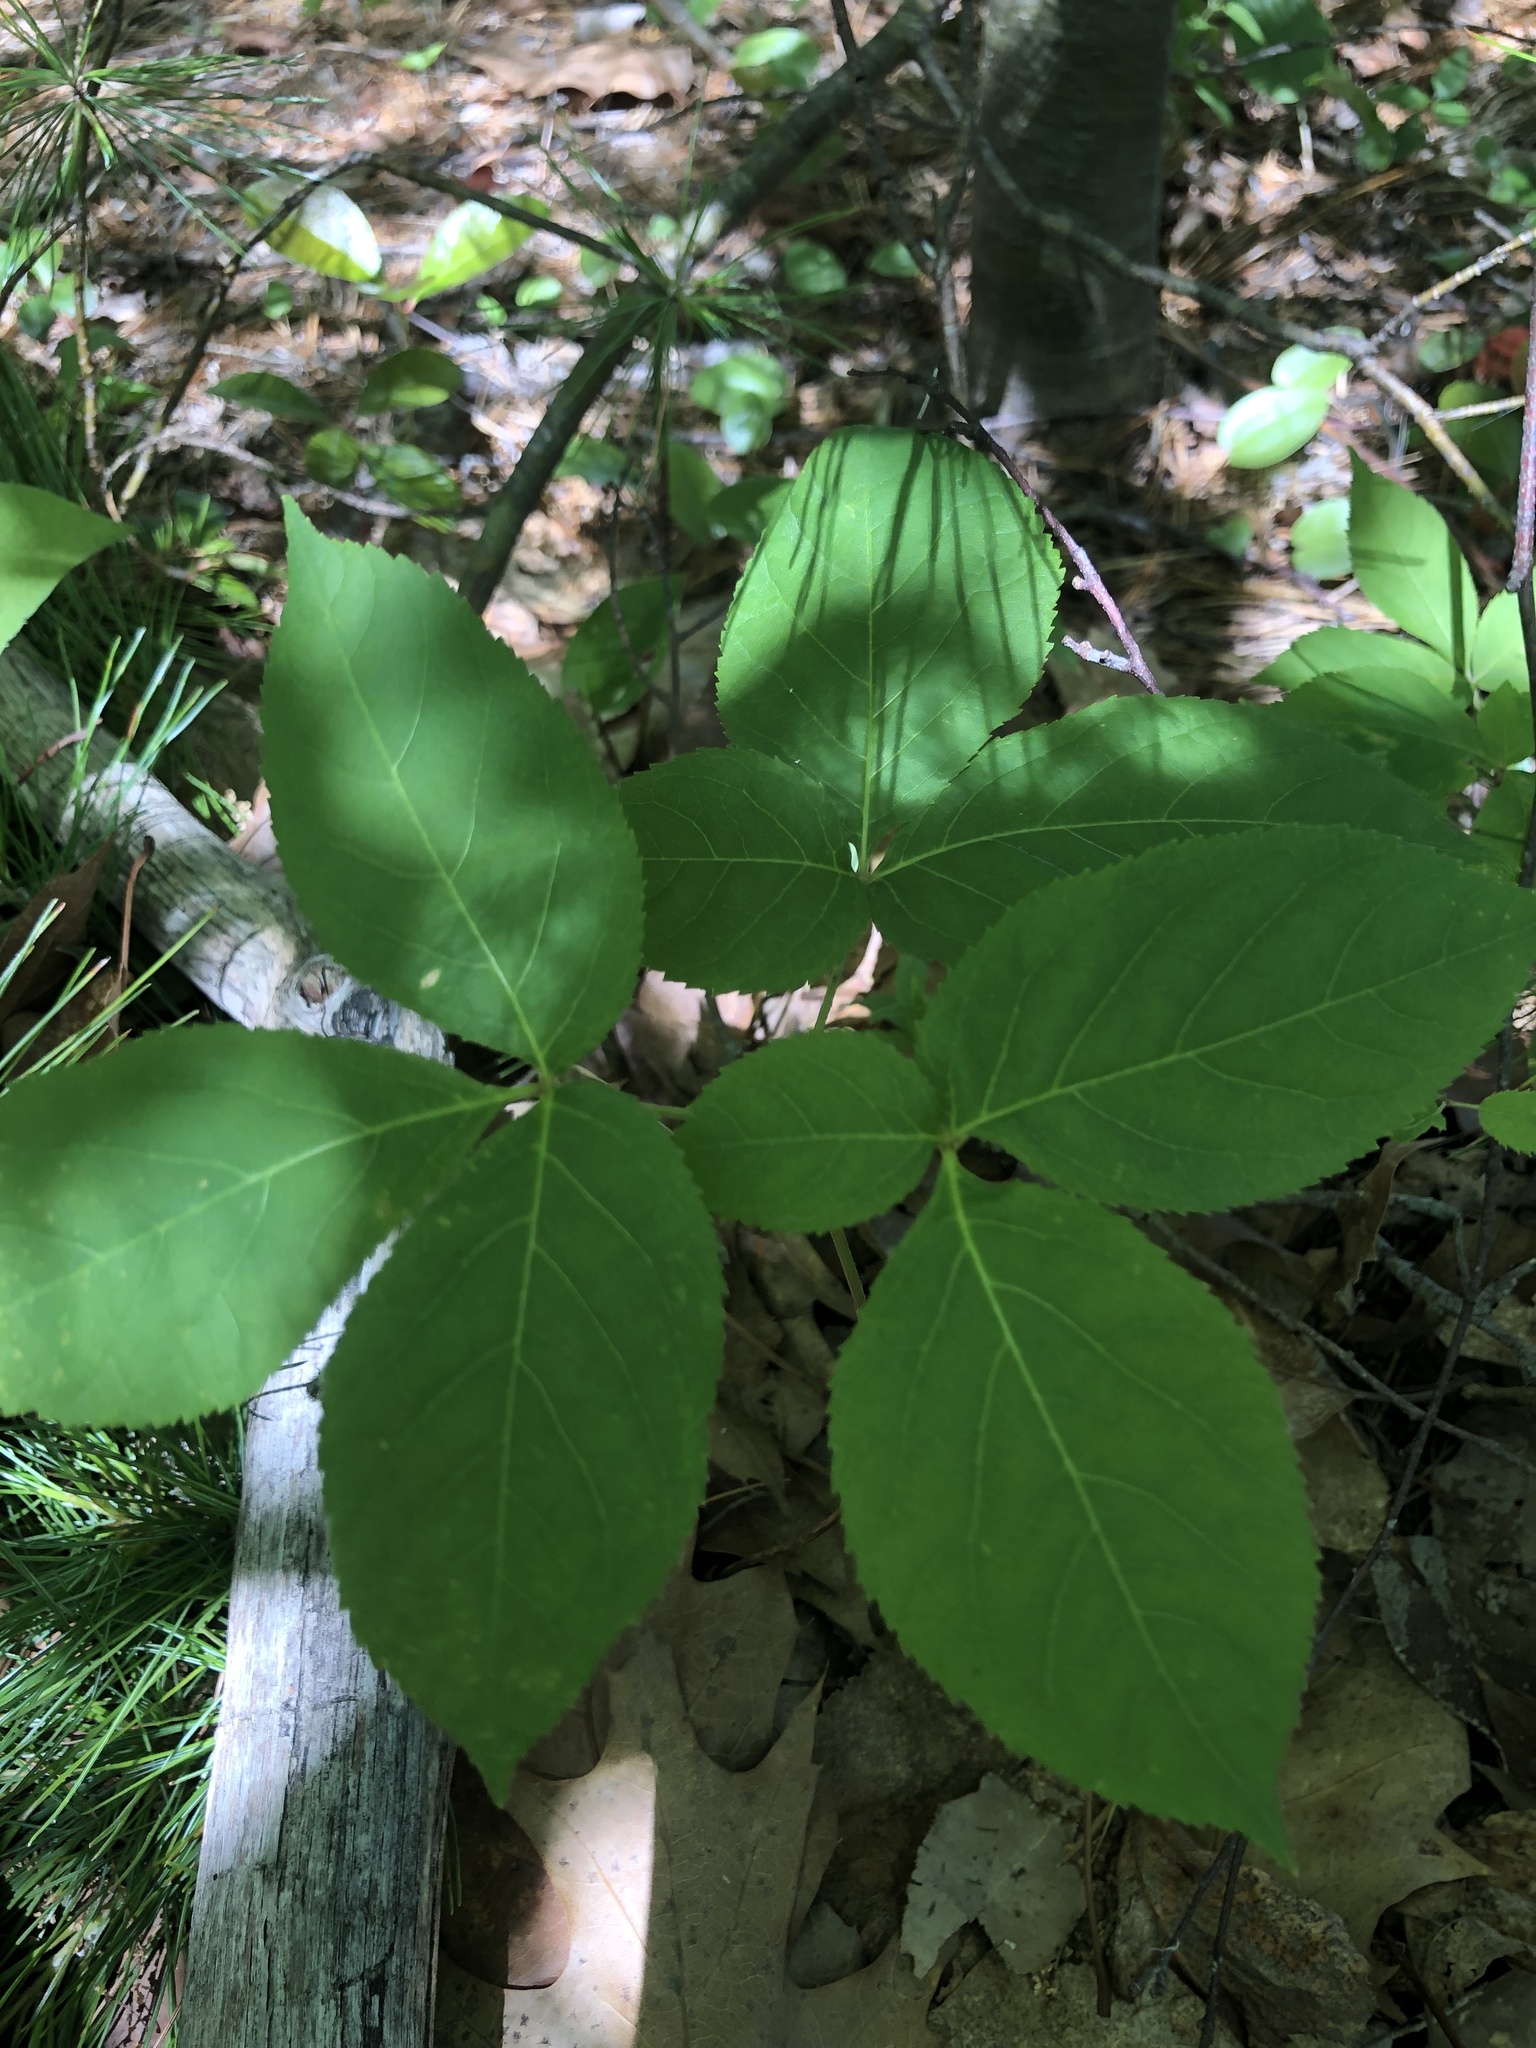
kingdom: Plantae
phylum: Tracheophyta
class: Magnoliopsida
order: Apiales
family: Araliaceae
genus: Aralia
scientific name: Aralia nudicaulis
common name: Wild sarsaparilla
